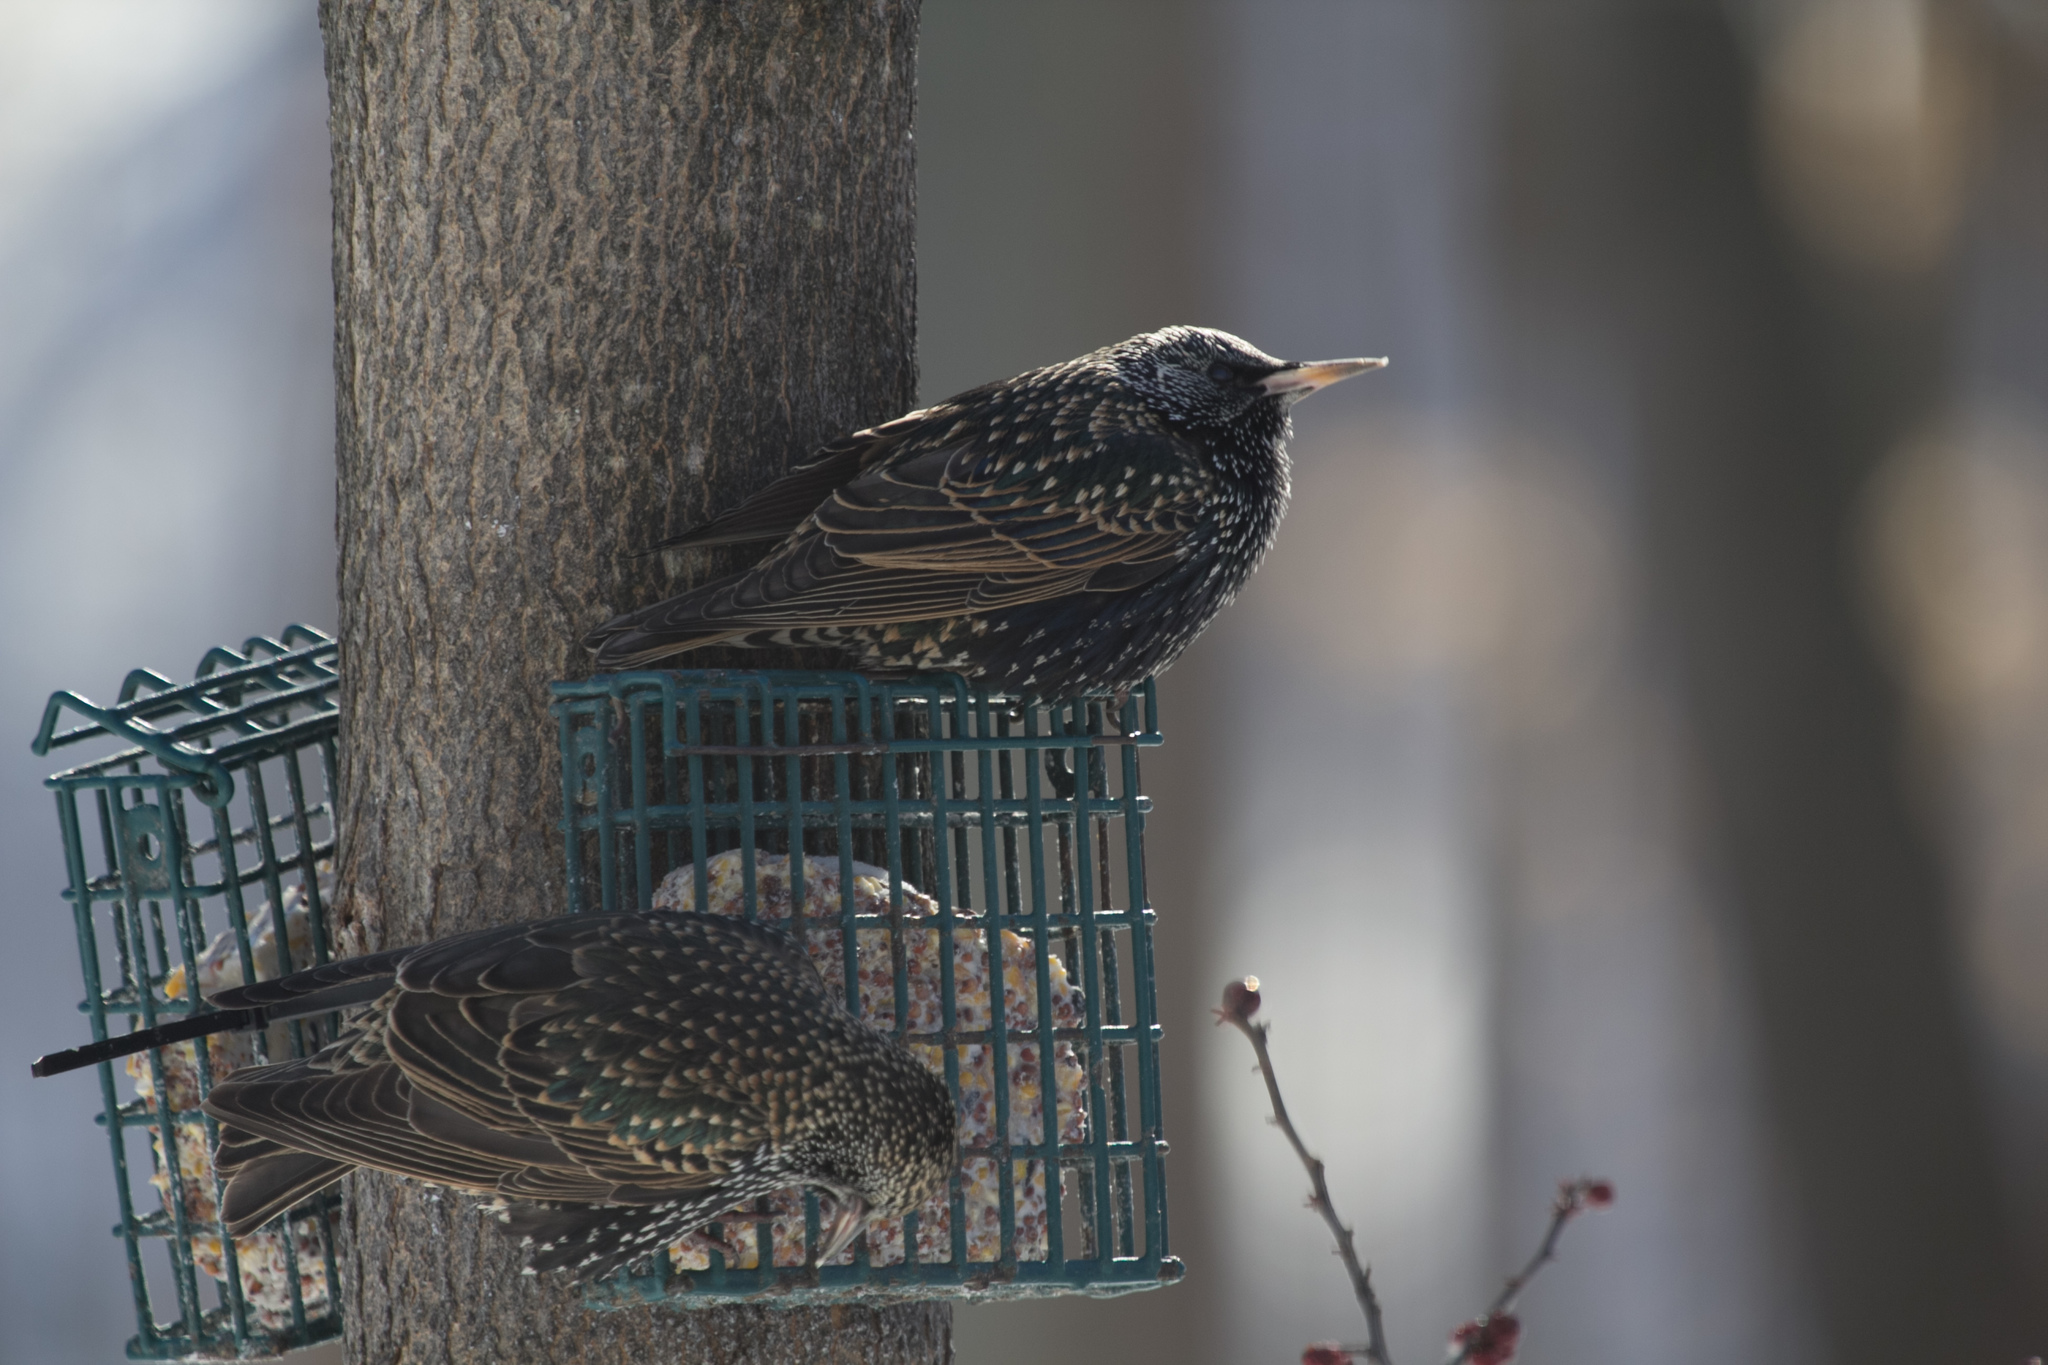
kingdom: Animalia
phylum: Chordata
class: Aves
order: Passeriformes
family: Sturnidae
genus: Sturnus
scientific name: Sturnus vulgaris
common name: Common starling
